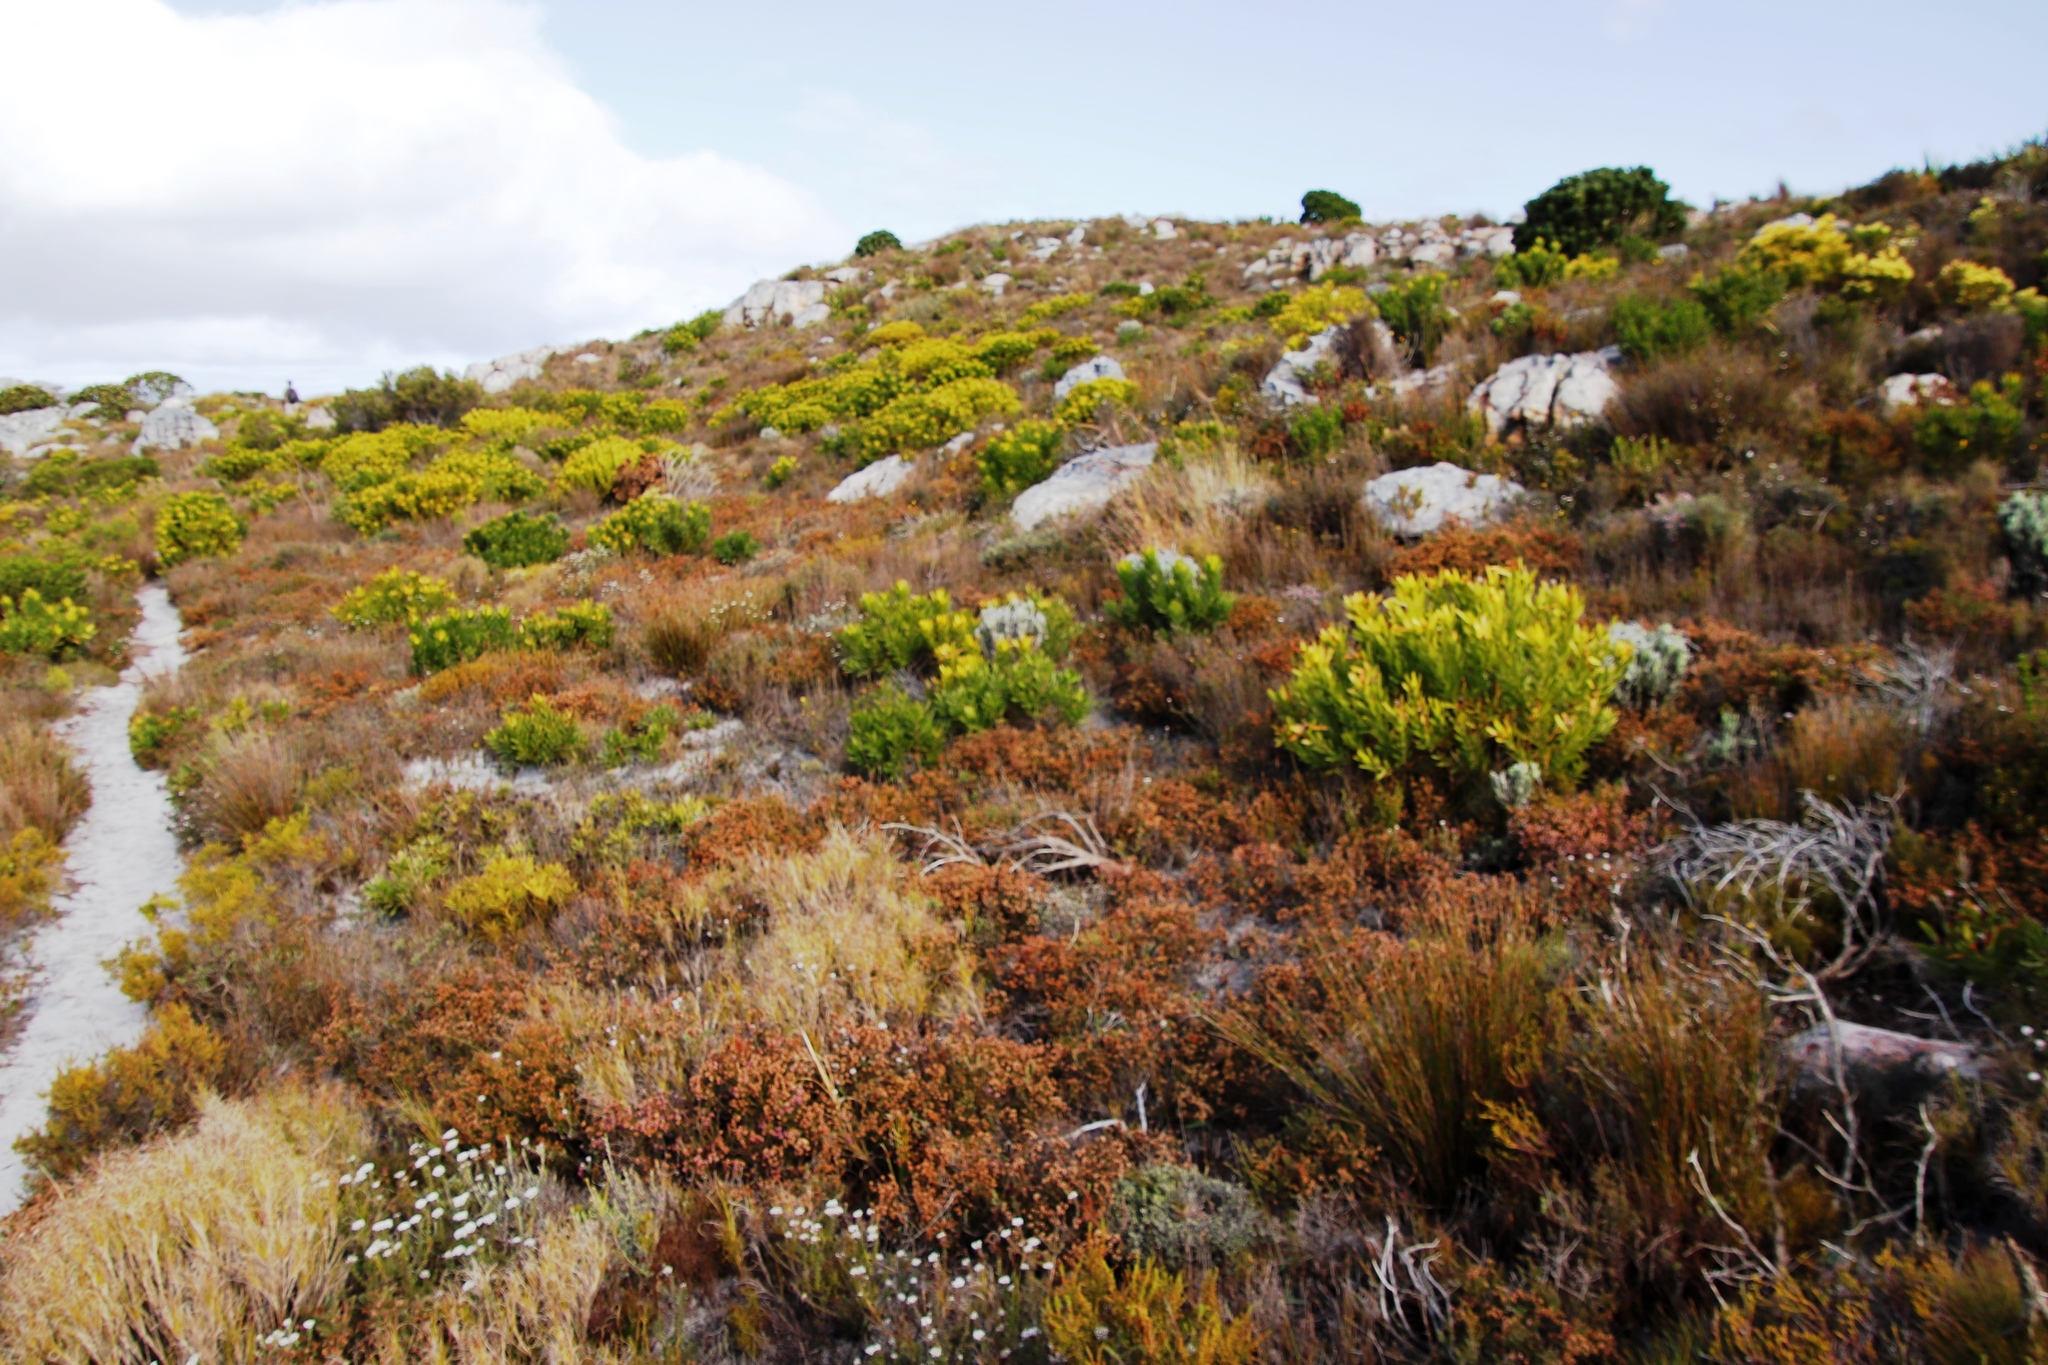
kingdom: Plantae
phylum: Tracheophyta
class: Magnoliopsida
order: Proteales
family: Proteaceae
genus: Leucadendron
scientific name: Leucadendron laureolum
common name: Golden sunshinebush
